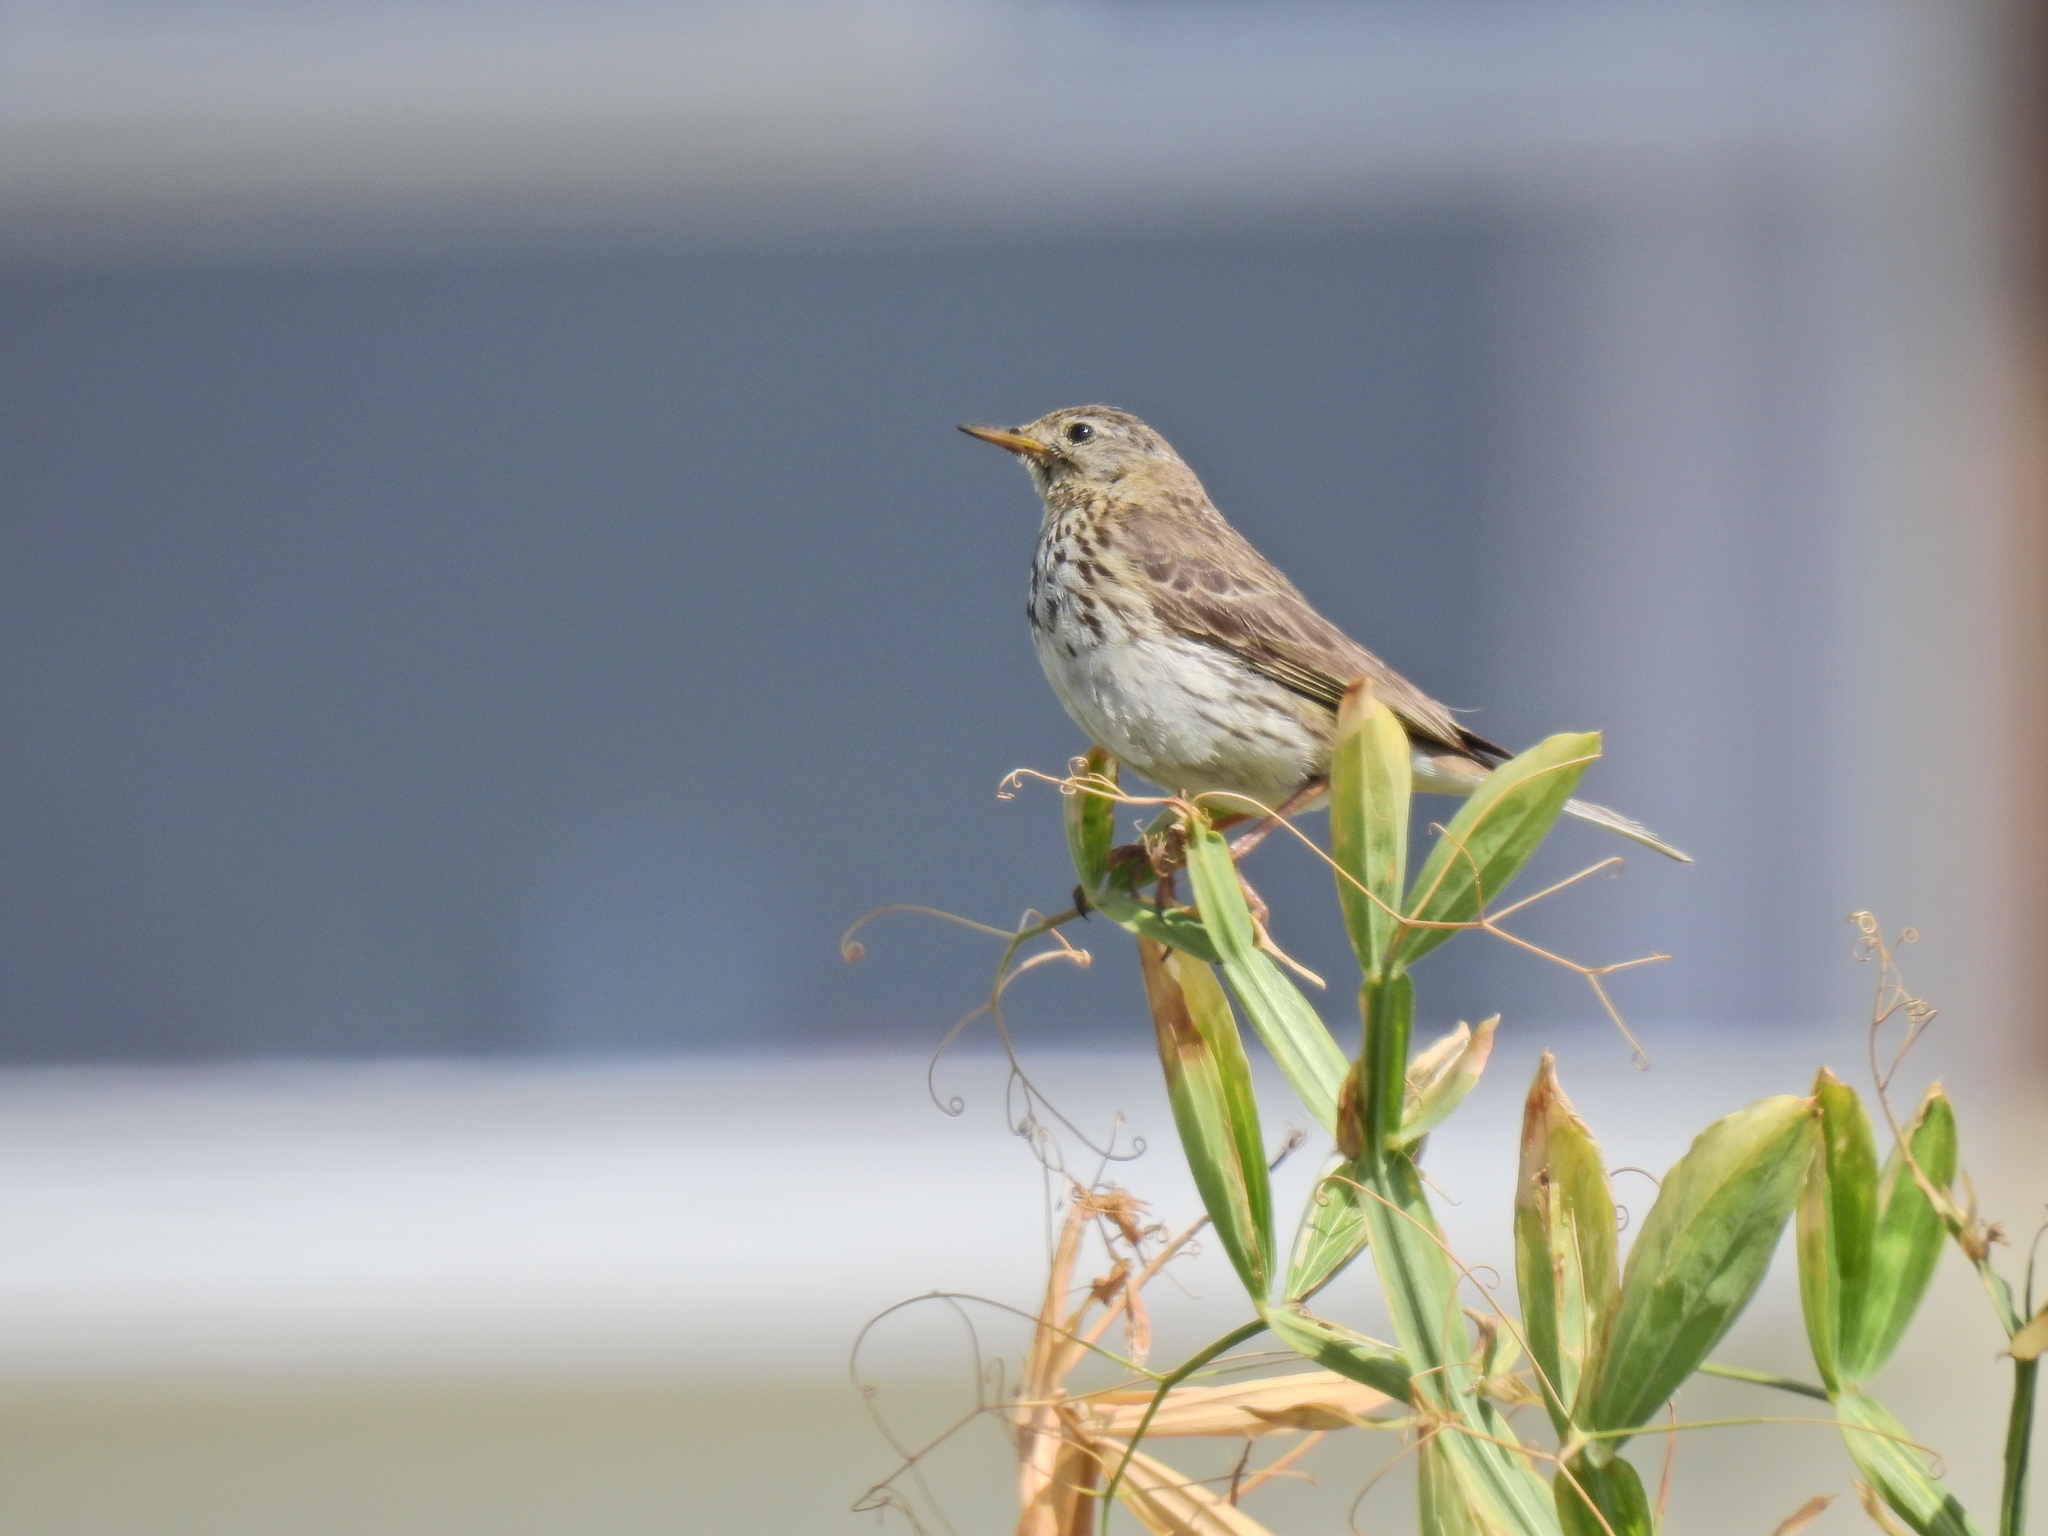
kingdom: Animalia
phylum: Chordata
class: Aves
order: Passeriformes
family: Motacillidae
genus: Anthus
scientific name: Anthus pratensis
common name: Meadow pipit
